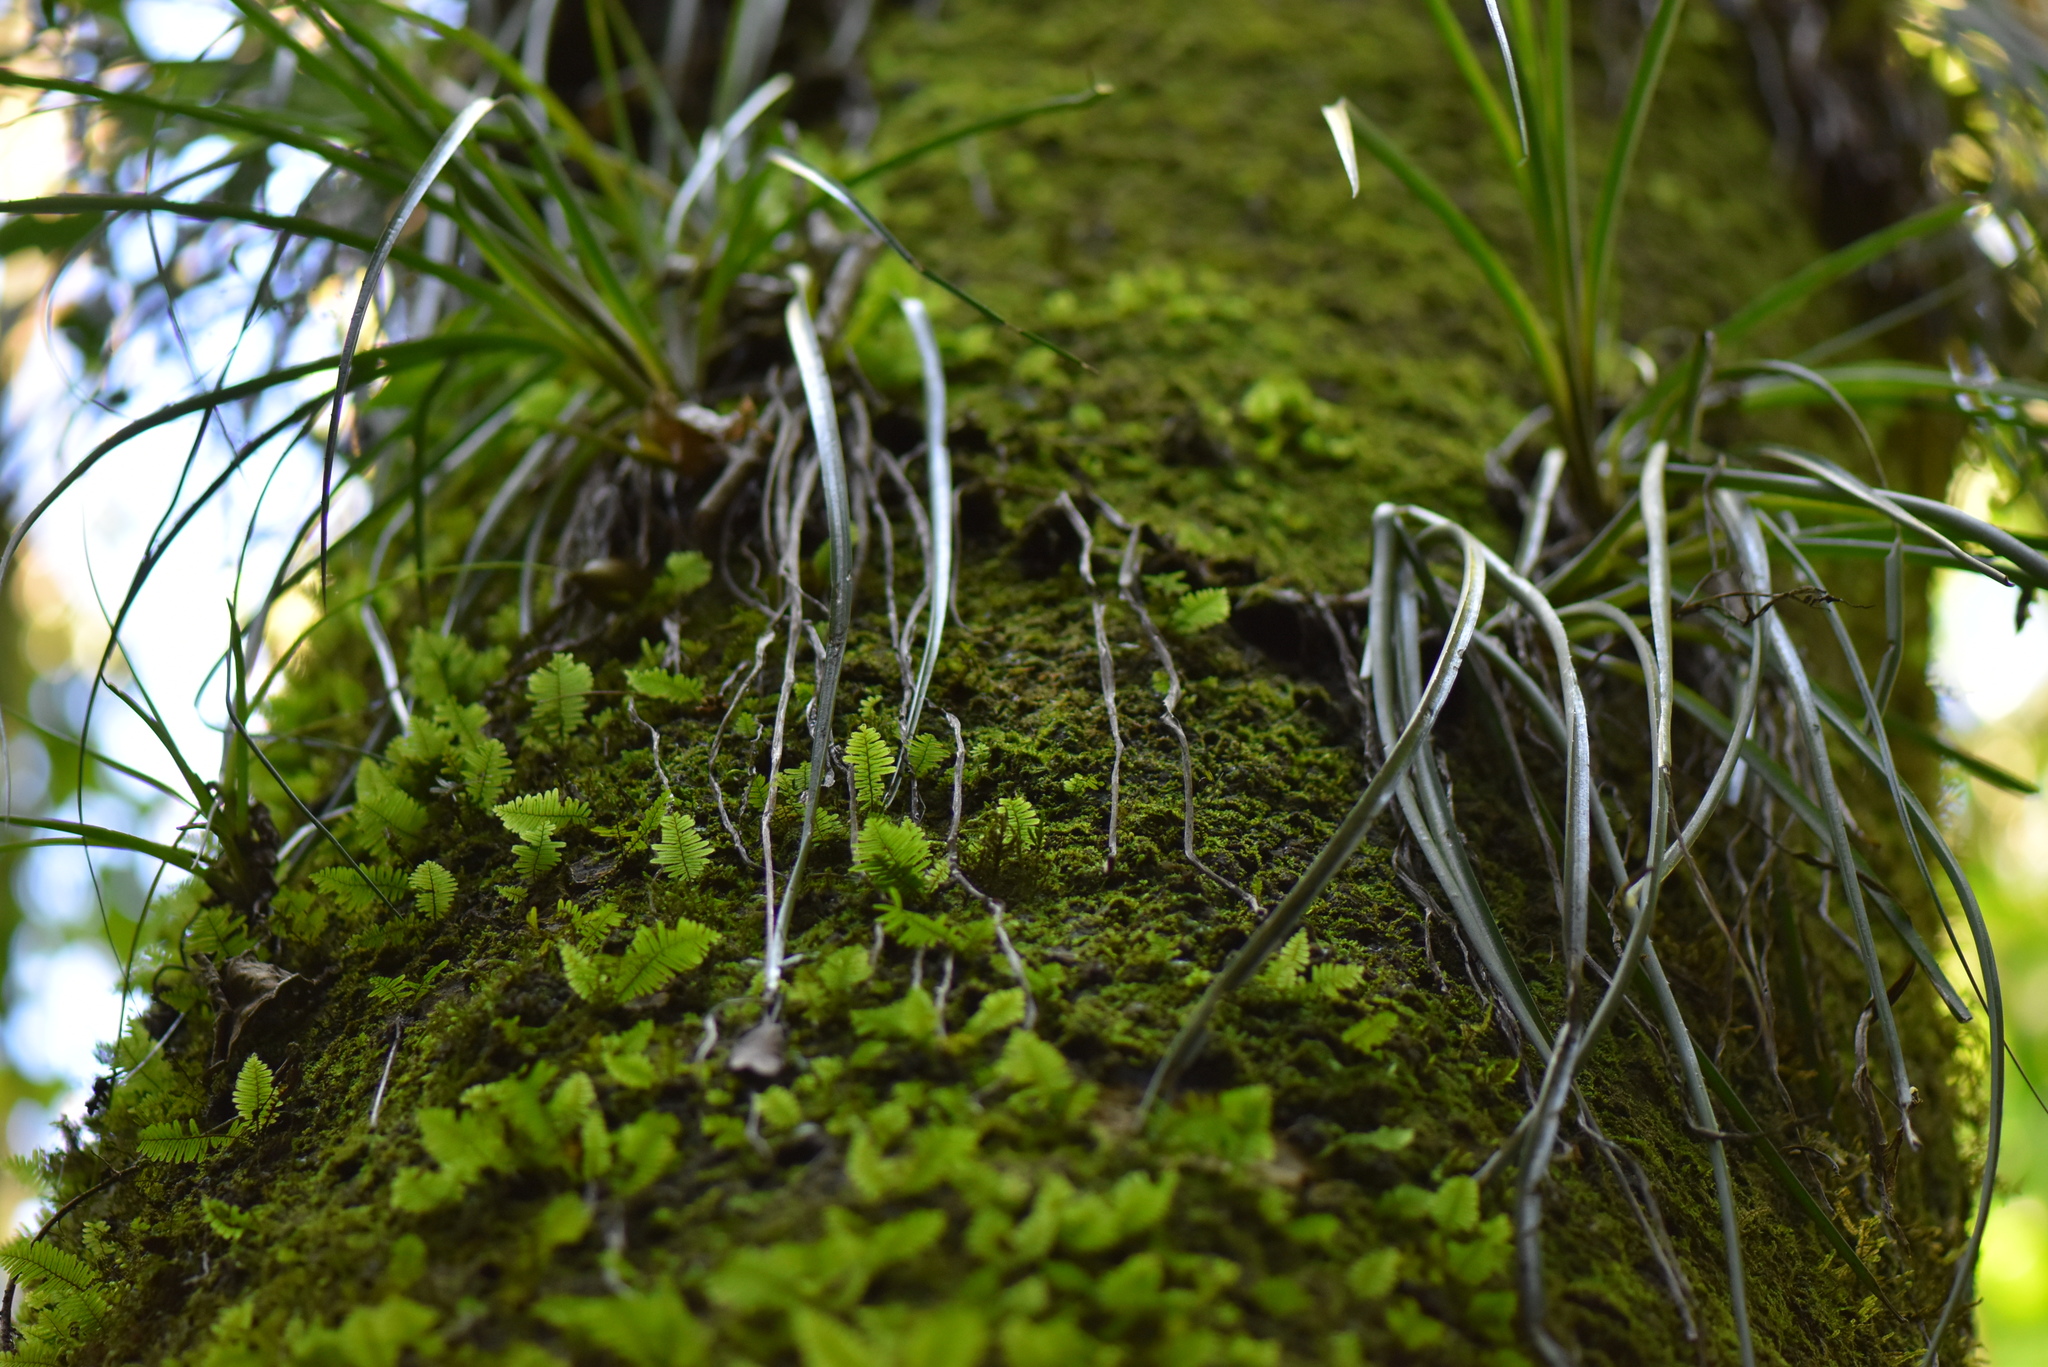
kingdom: Plantae
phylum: Tracheophyta
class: Polypodiopsida
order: Polypodiales
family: Polypodiaceae
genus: Pleopeltis
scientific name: Pleopeltis polypodioides
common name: Resurrection fern
